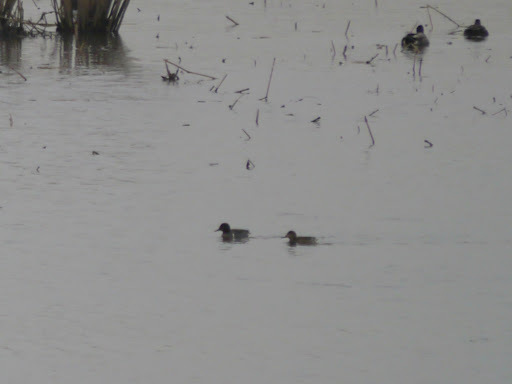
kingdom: Animalia
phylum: Chordata
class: Aves
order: Anseriformes
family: Anatidae
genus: Anas
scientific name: Anas crecca
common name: Eurasian teal
